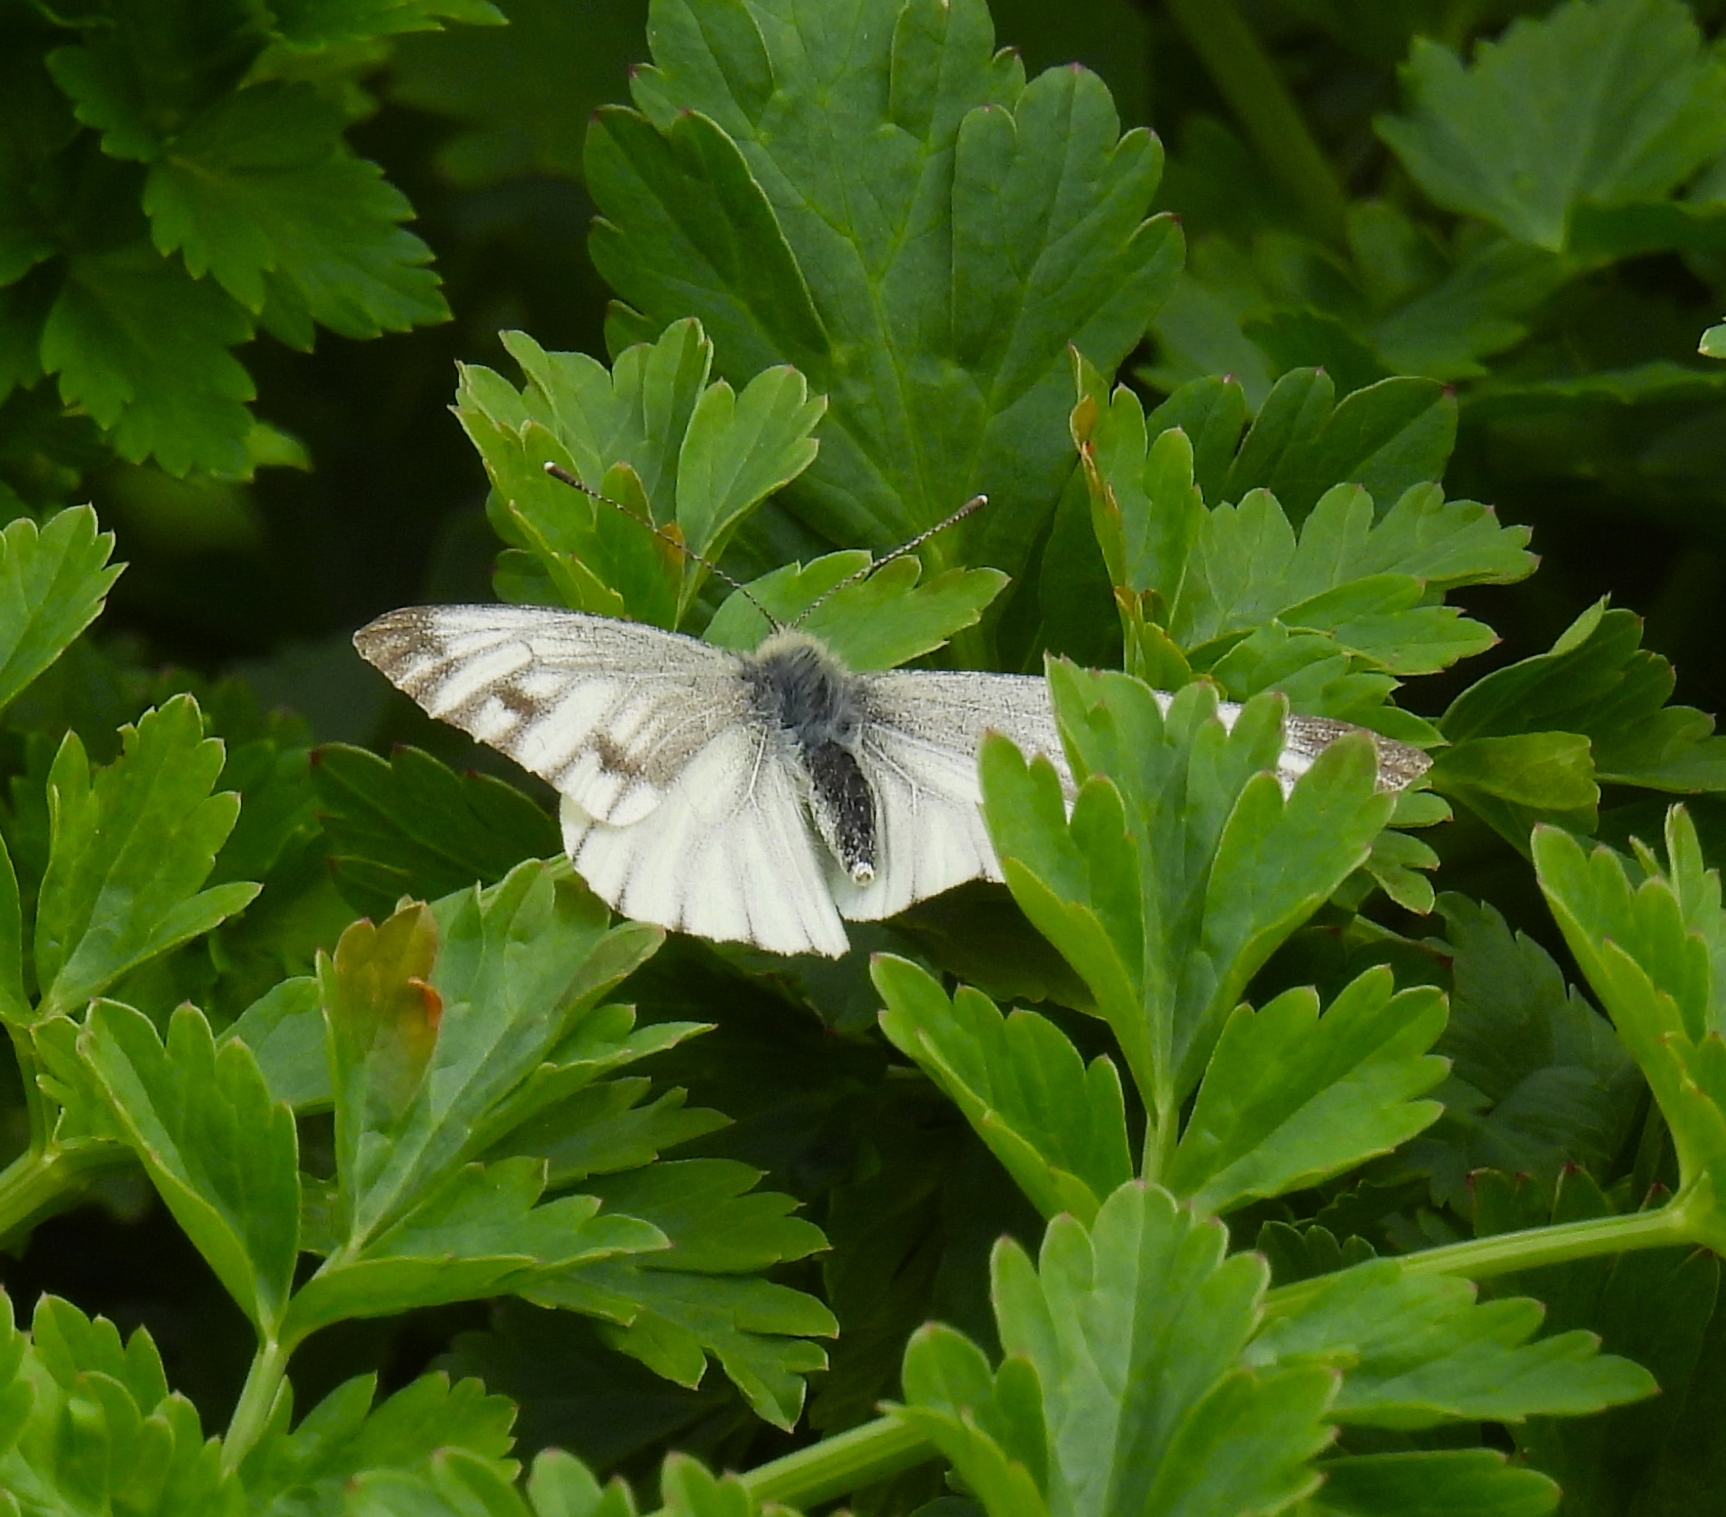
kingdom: Animalia
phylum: Arthropoda
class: Insecta
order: Lepidoptera
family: Pieridae
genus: Pieris
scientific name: Pieris napi
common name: Green-veined white
